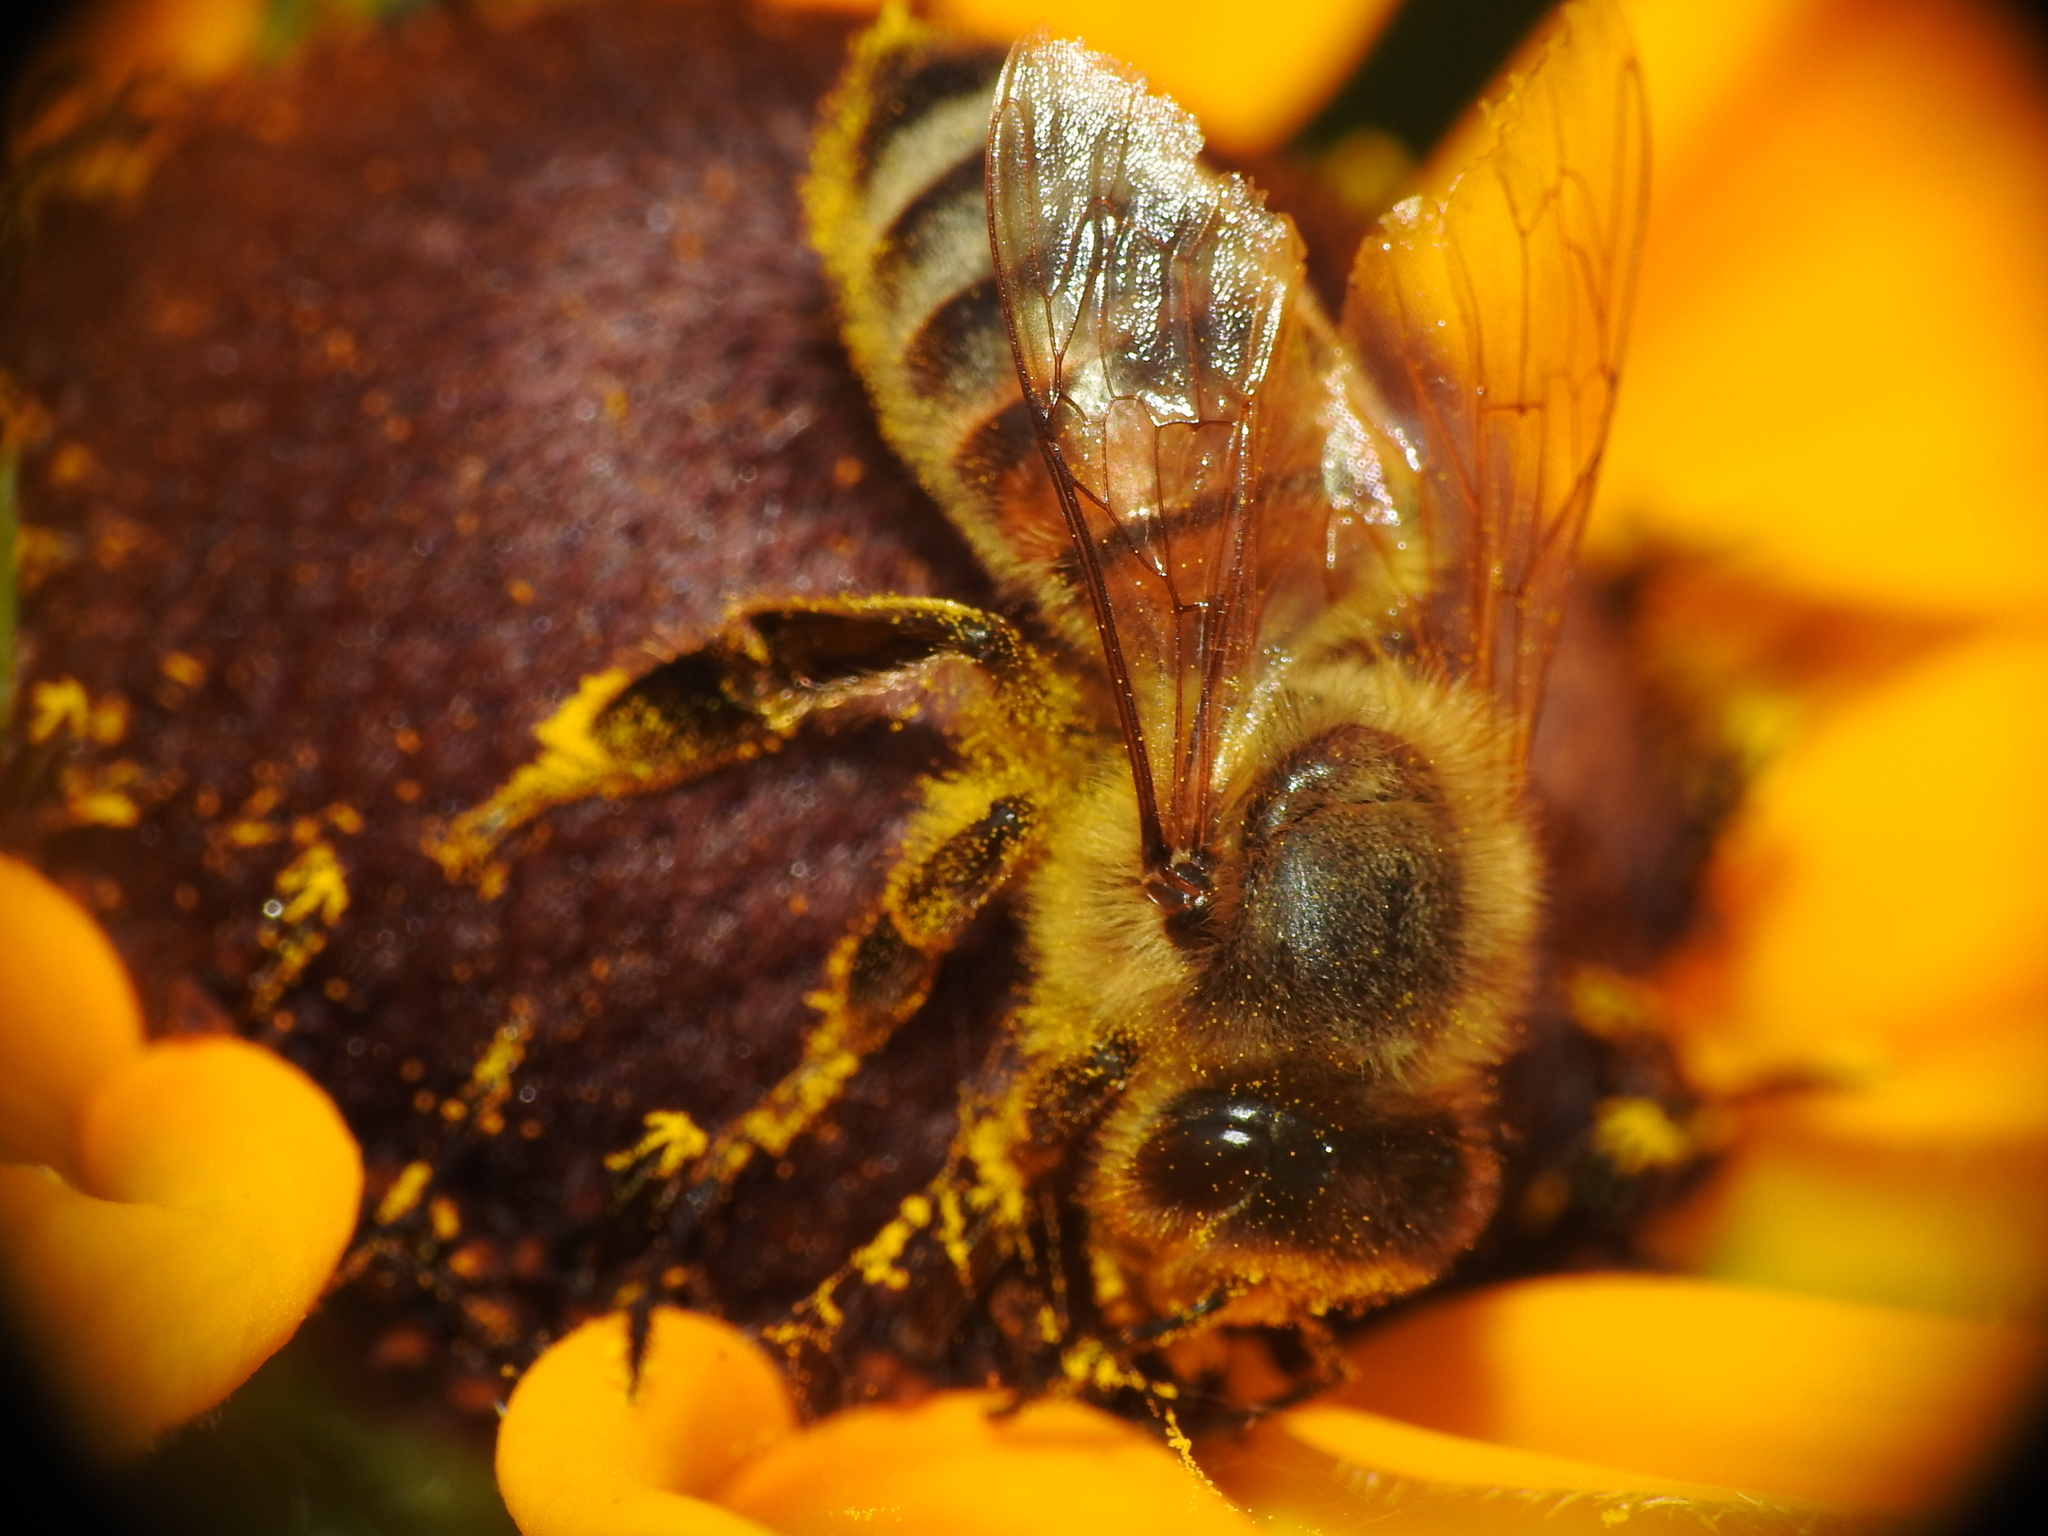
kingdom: Animalia
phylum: Arthropoda
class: Insecta
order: Hymenoptera
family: Apidae
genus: Apis
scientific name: Apis mellifera
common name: Honey bee
